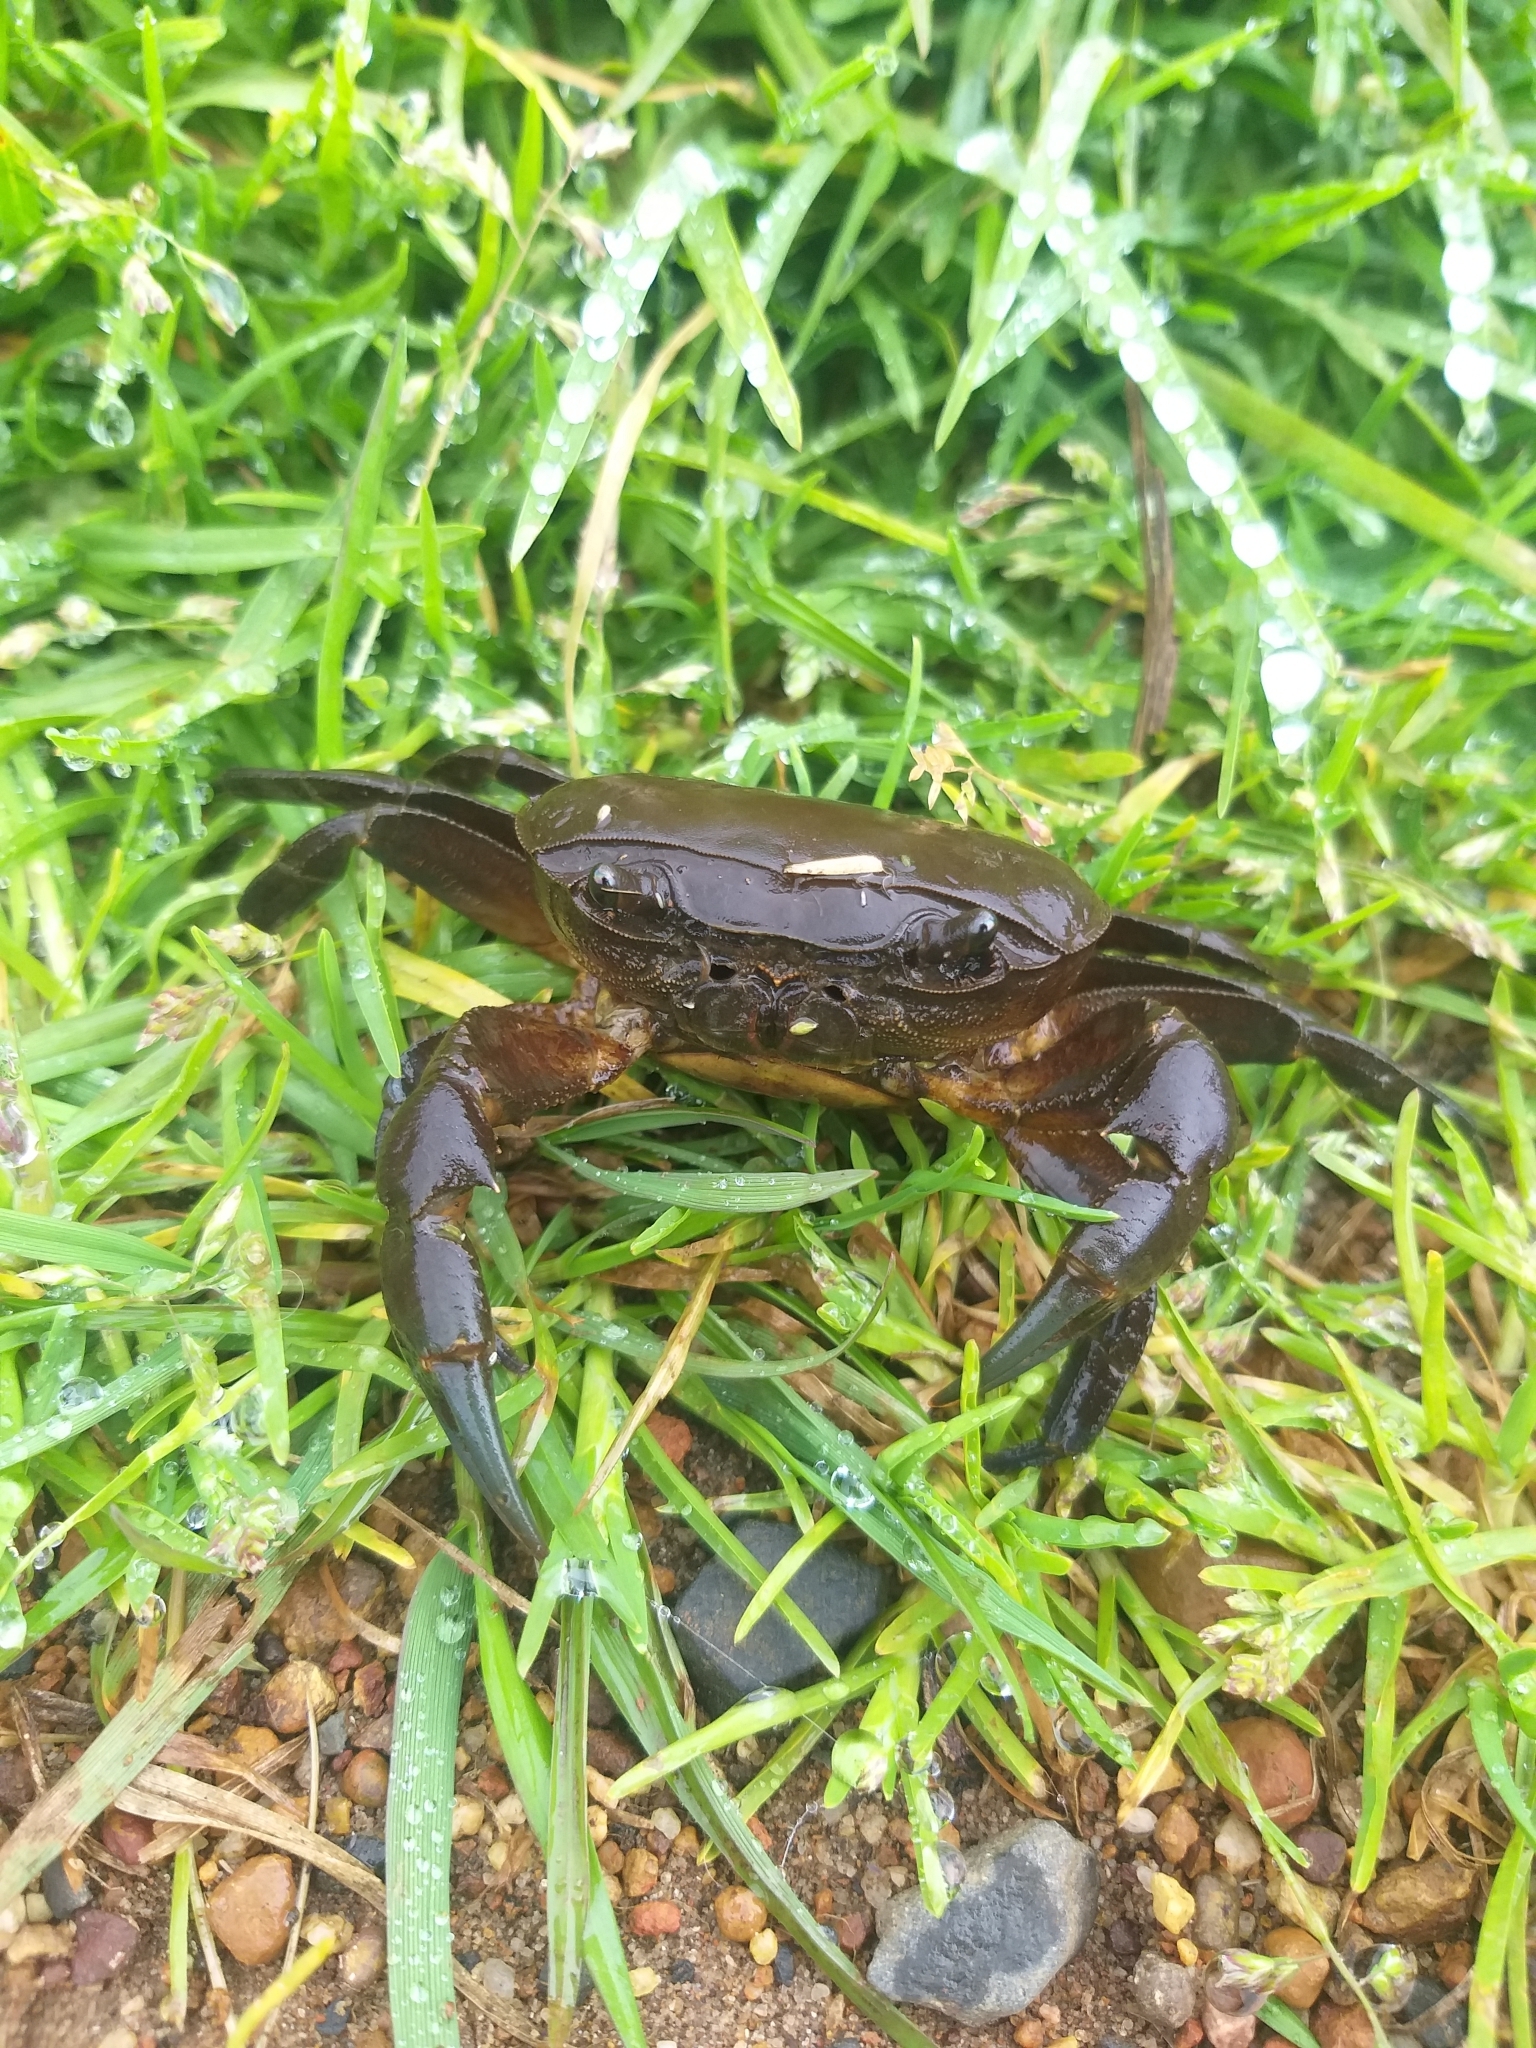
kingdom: Animalia
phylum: Arthropoda
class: Malacostraca
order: Decapoda
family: Potamonautidae
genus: Potamonautes
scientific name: Potamonautes perlatus
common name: Cape river crab
